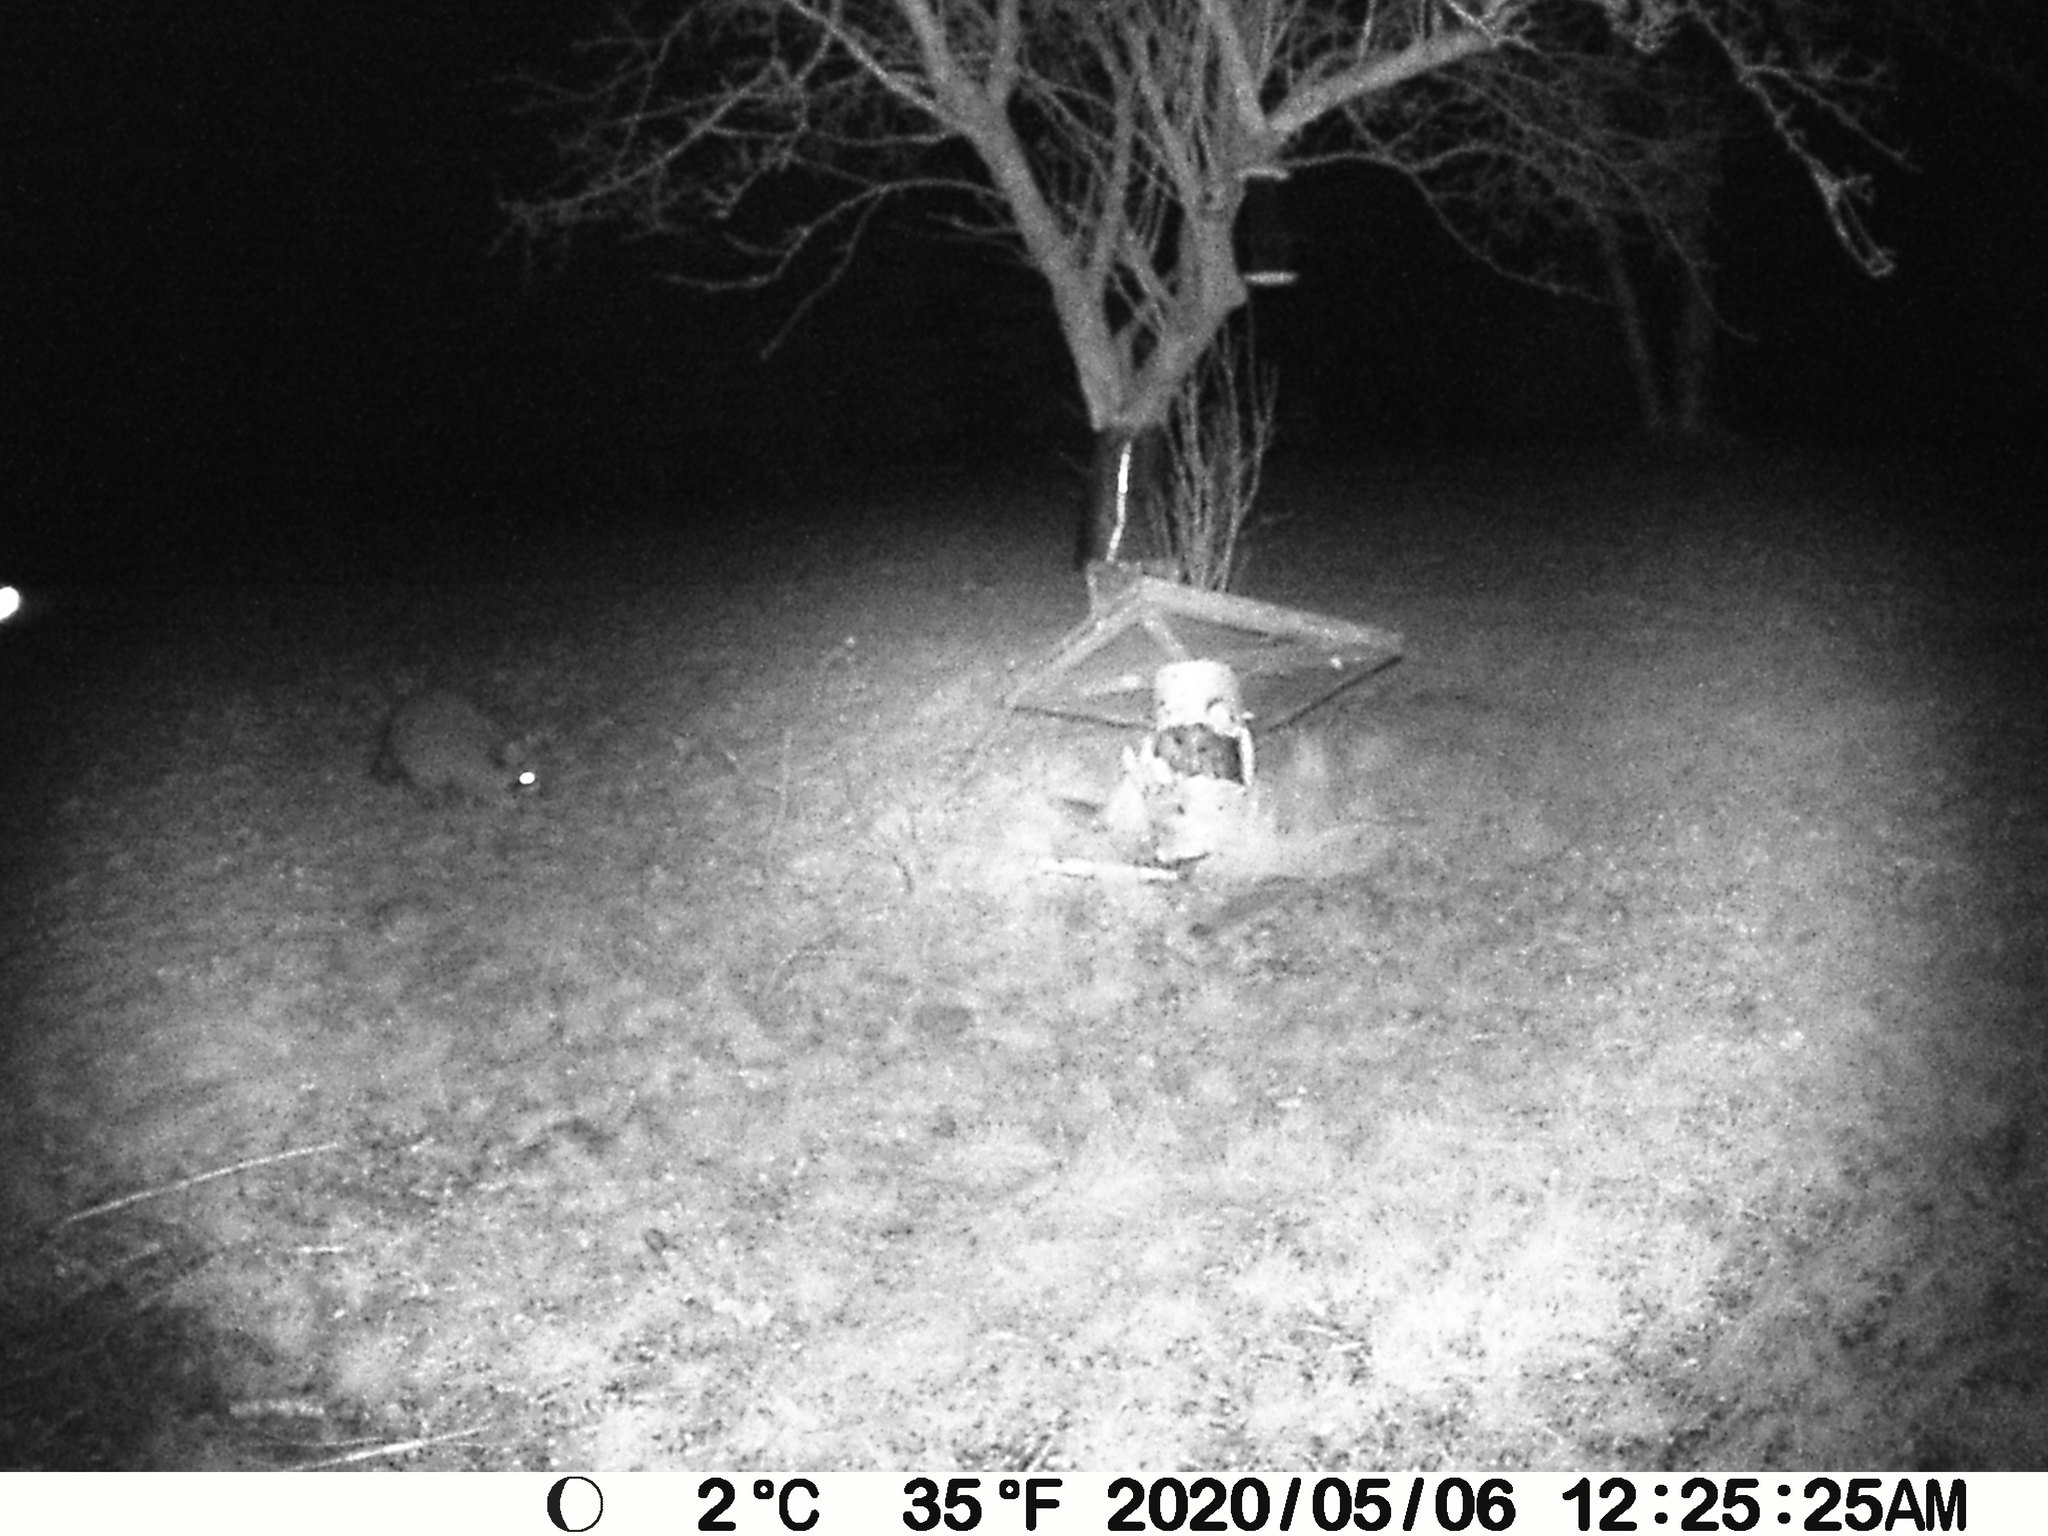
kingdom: Animalia
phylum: Chordata
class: Mammalia
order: Carnivora
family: Procyonidae
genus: Procyon
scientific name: Procyon lotor
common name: Raccoon
